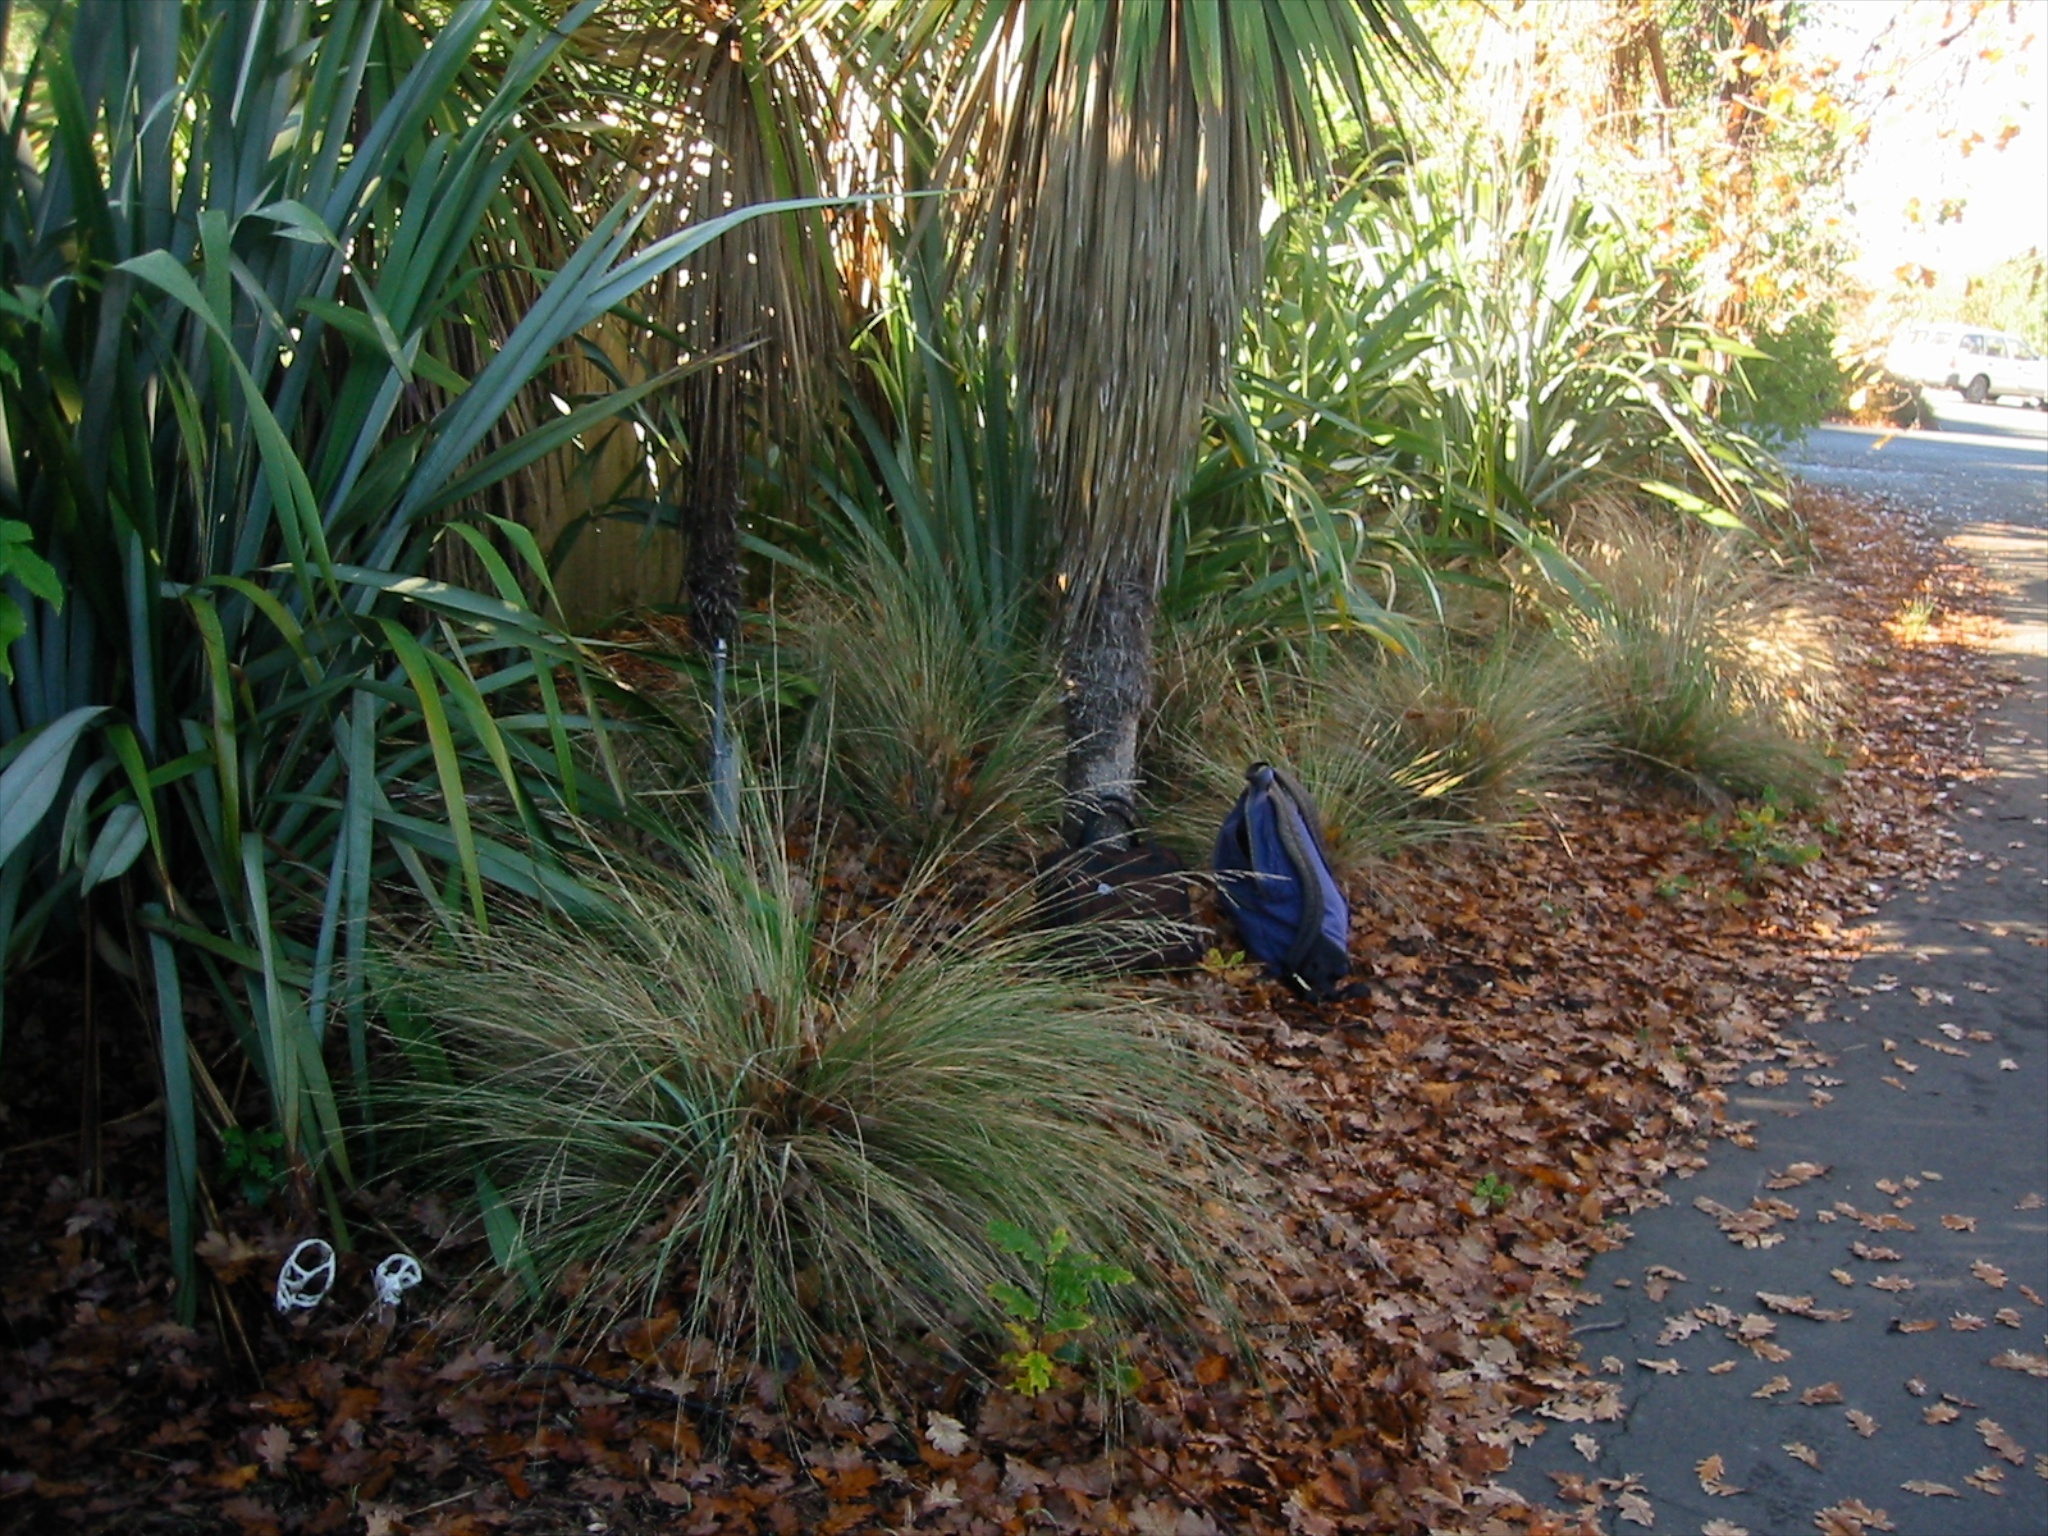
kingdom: Fungi
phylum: Basidiomycota
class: Agaricomycetes
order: Phallales
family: Phallaceae
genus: Ileodictyon
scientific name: Ileodictyon cibarium
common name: Basket fungus
